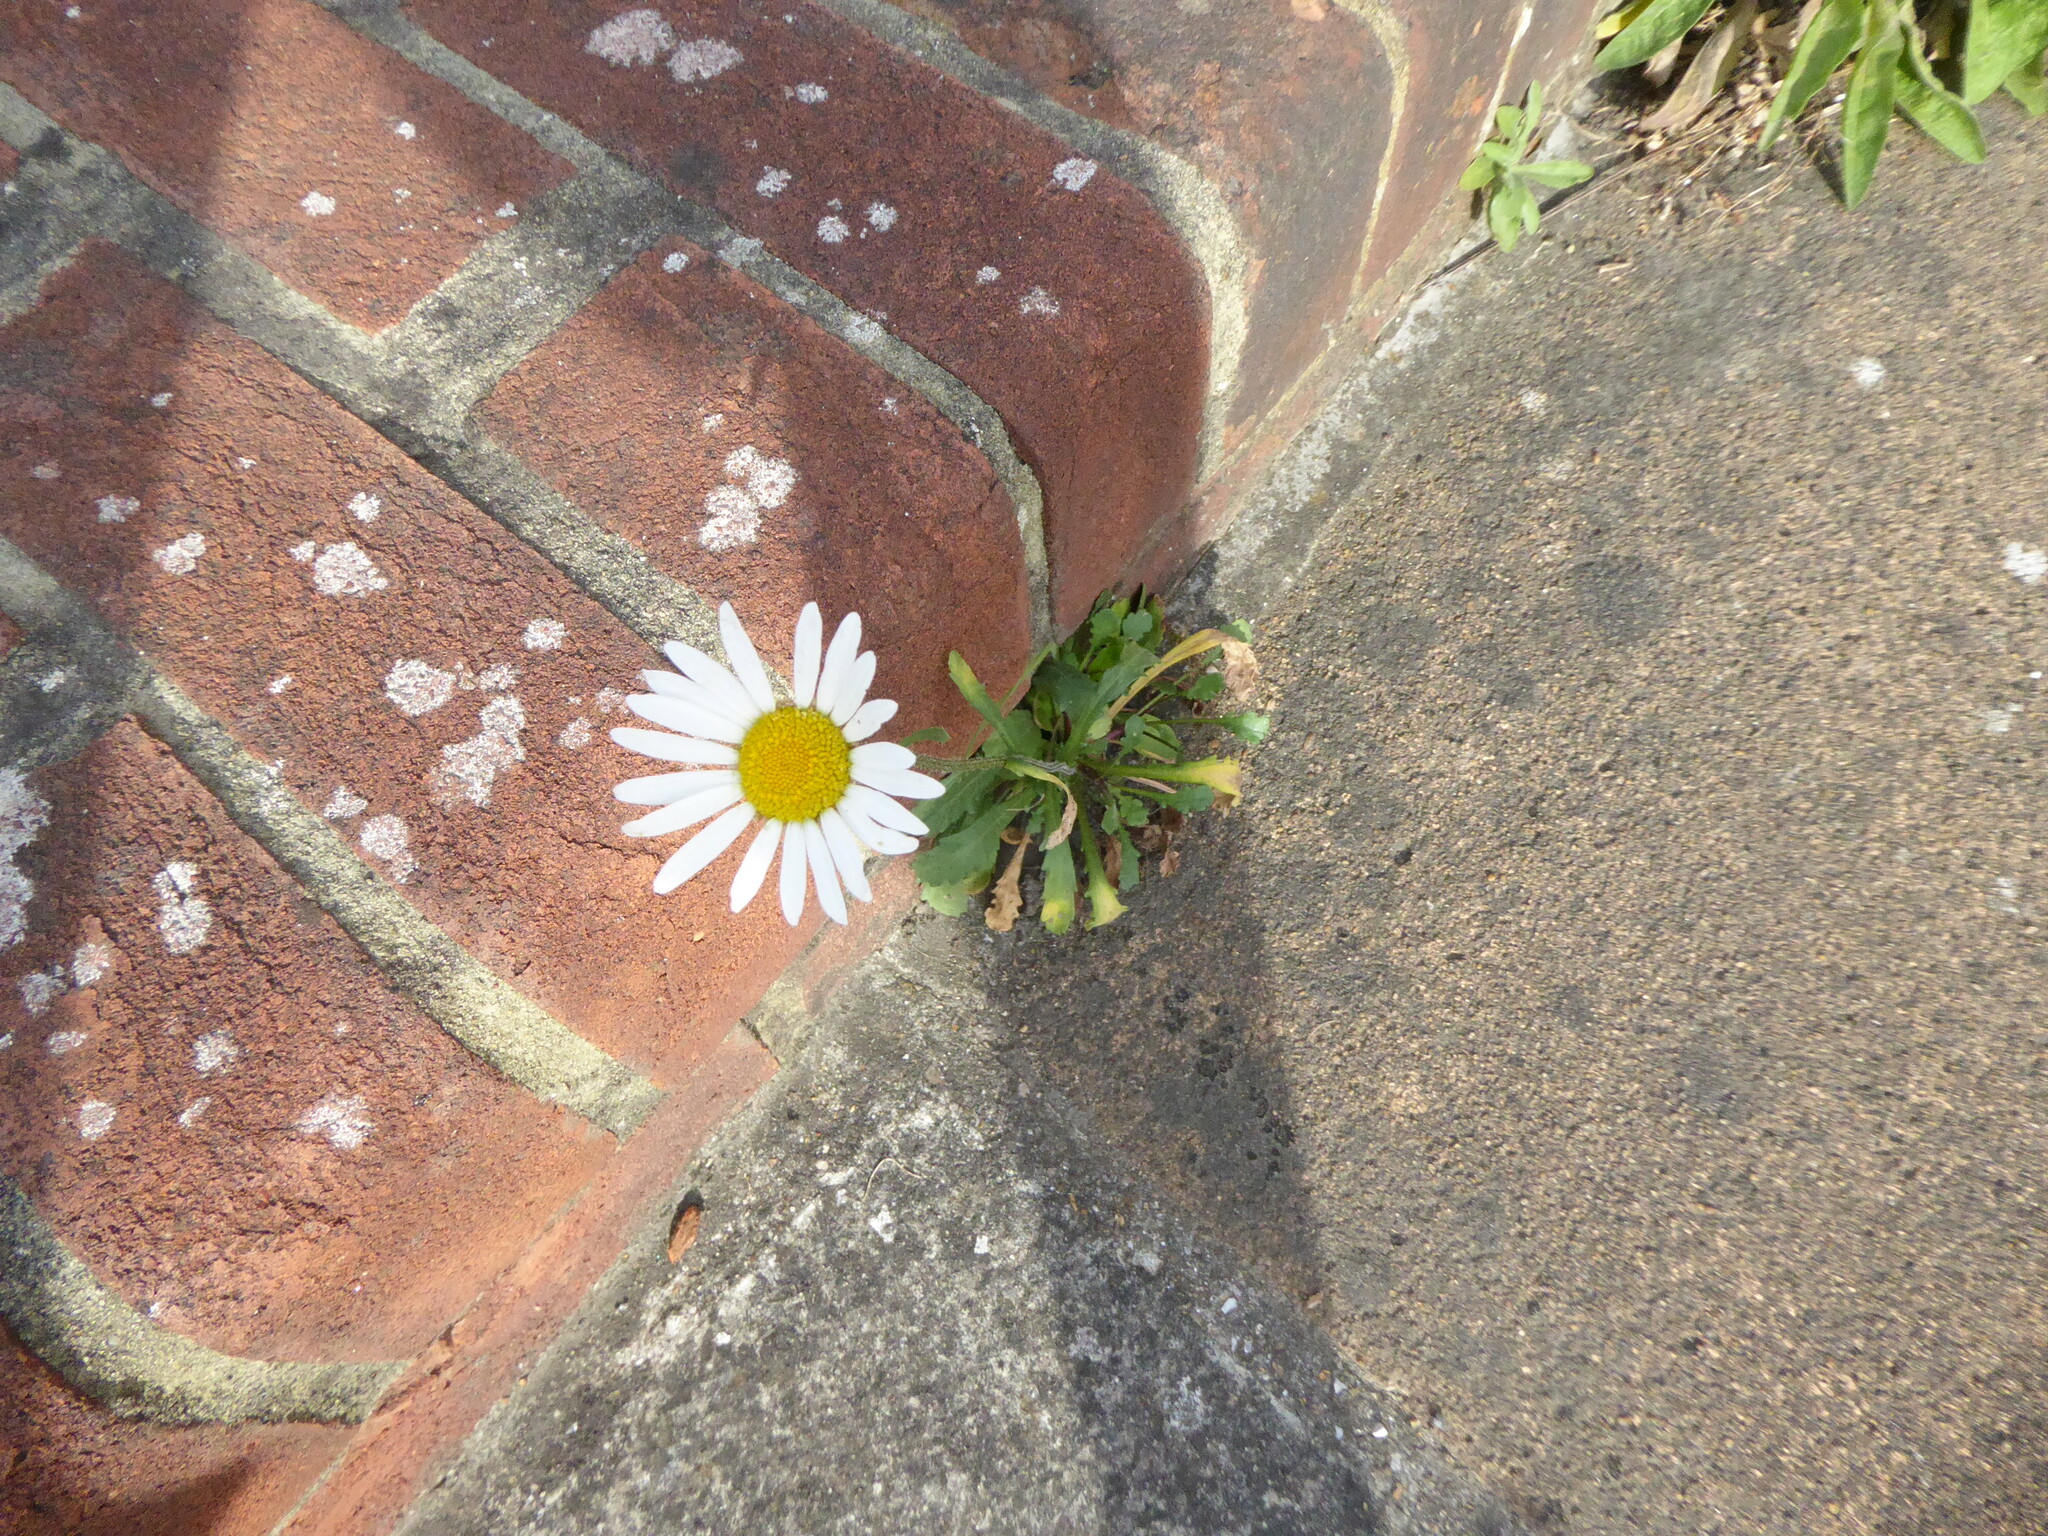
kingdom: Plantae
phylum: Tracheophyta
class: Magnoliopsida
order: Asterales
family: Asteraceae
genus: Leucanthemum
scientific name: Leucanthemum vulgare
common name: Oxeye daisy
